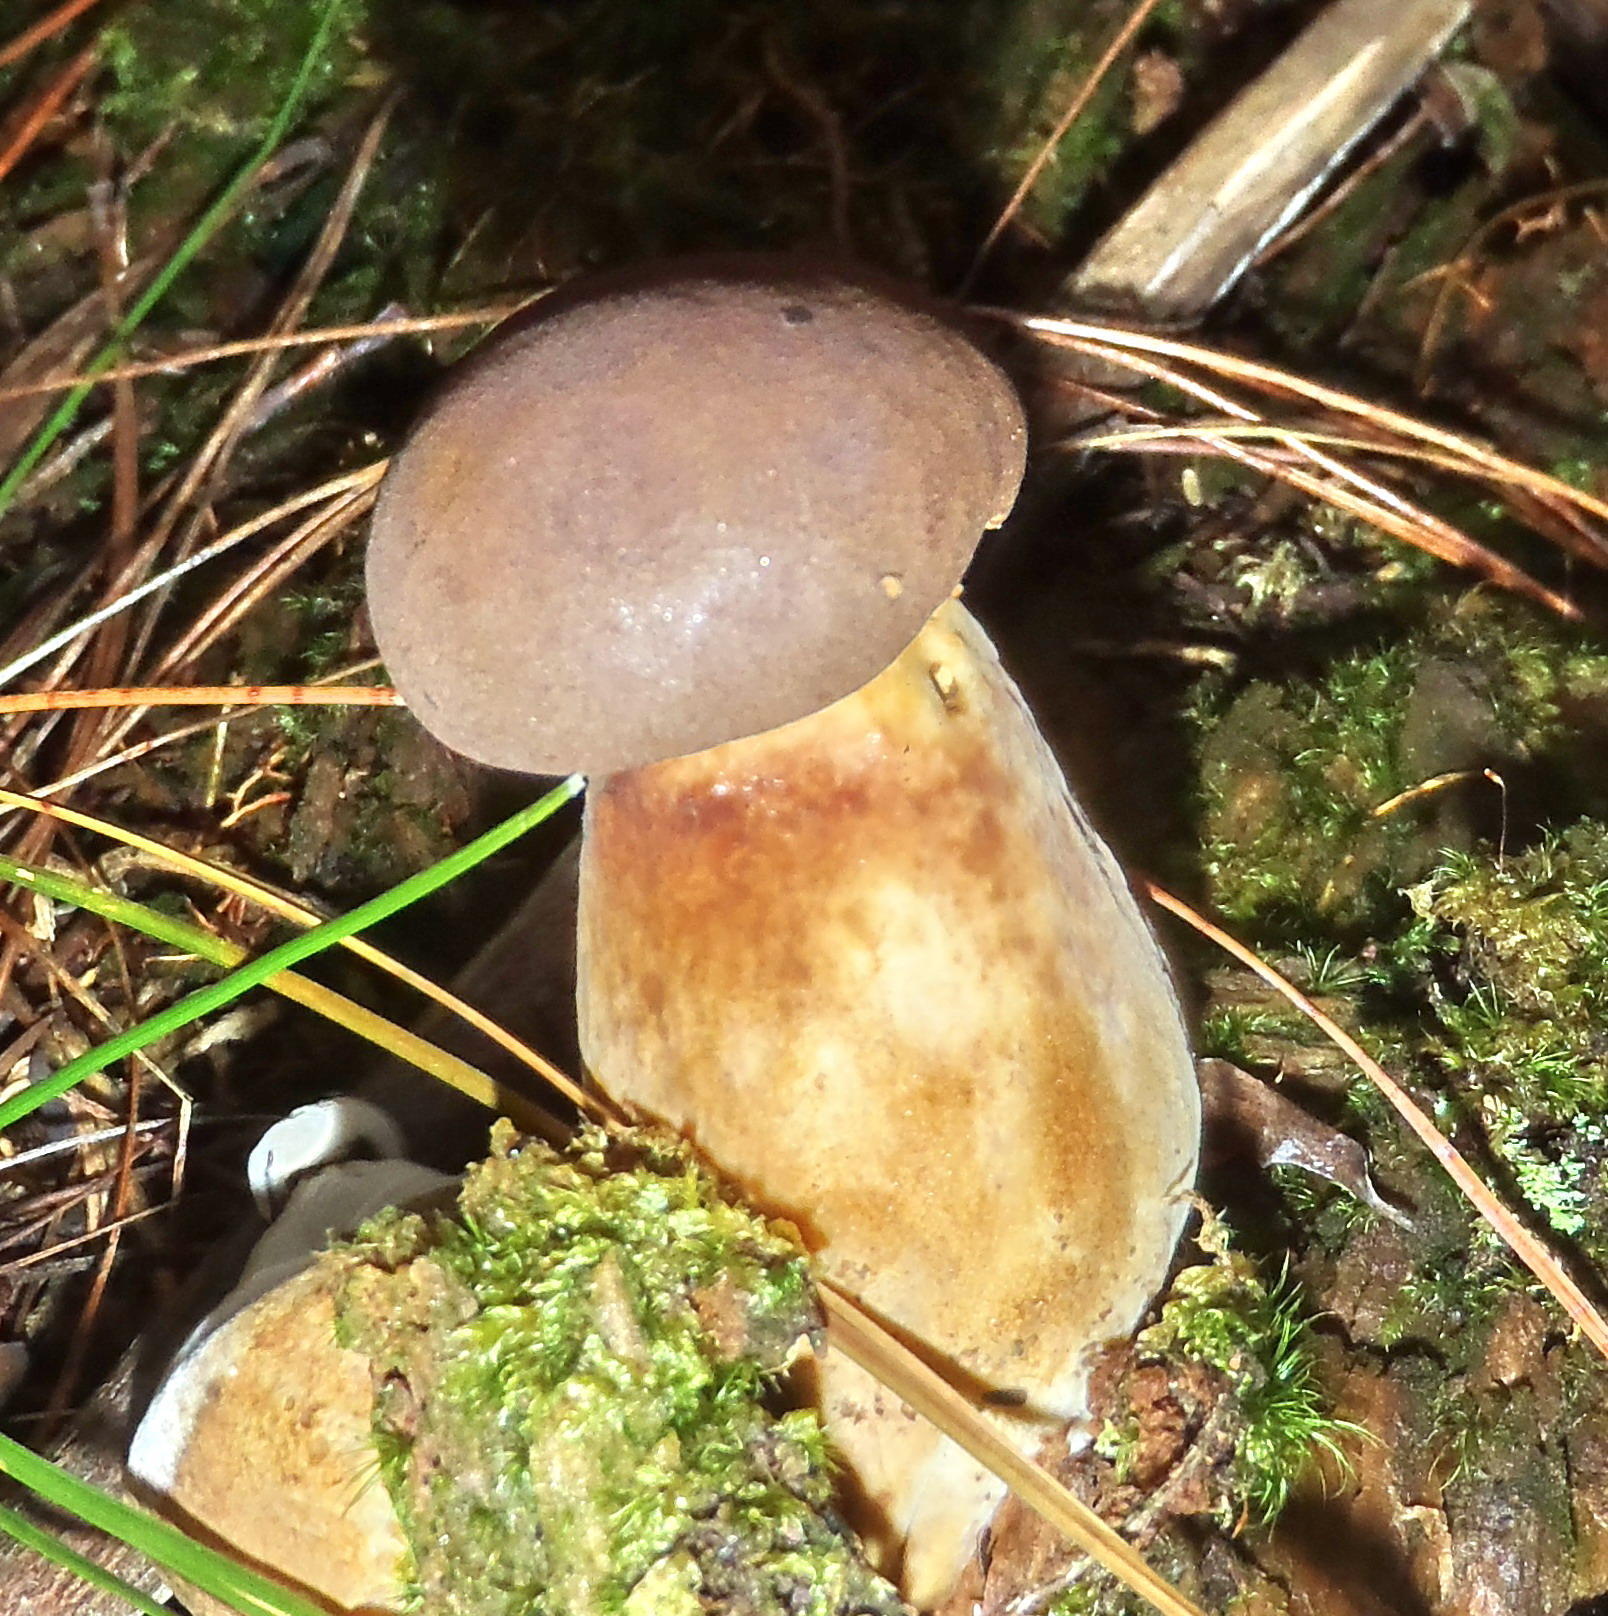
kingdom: Fungi
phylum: Basidiomycota
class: Agaricomycetes
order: Boletales
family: Boletaceae
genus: Boletus
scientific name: Boletus edulis
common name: Cep
